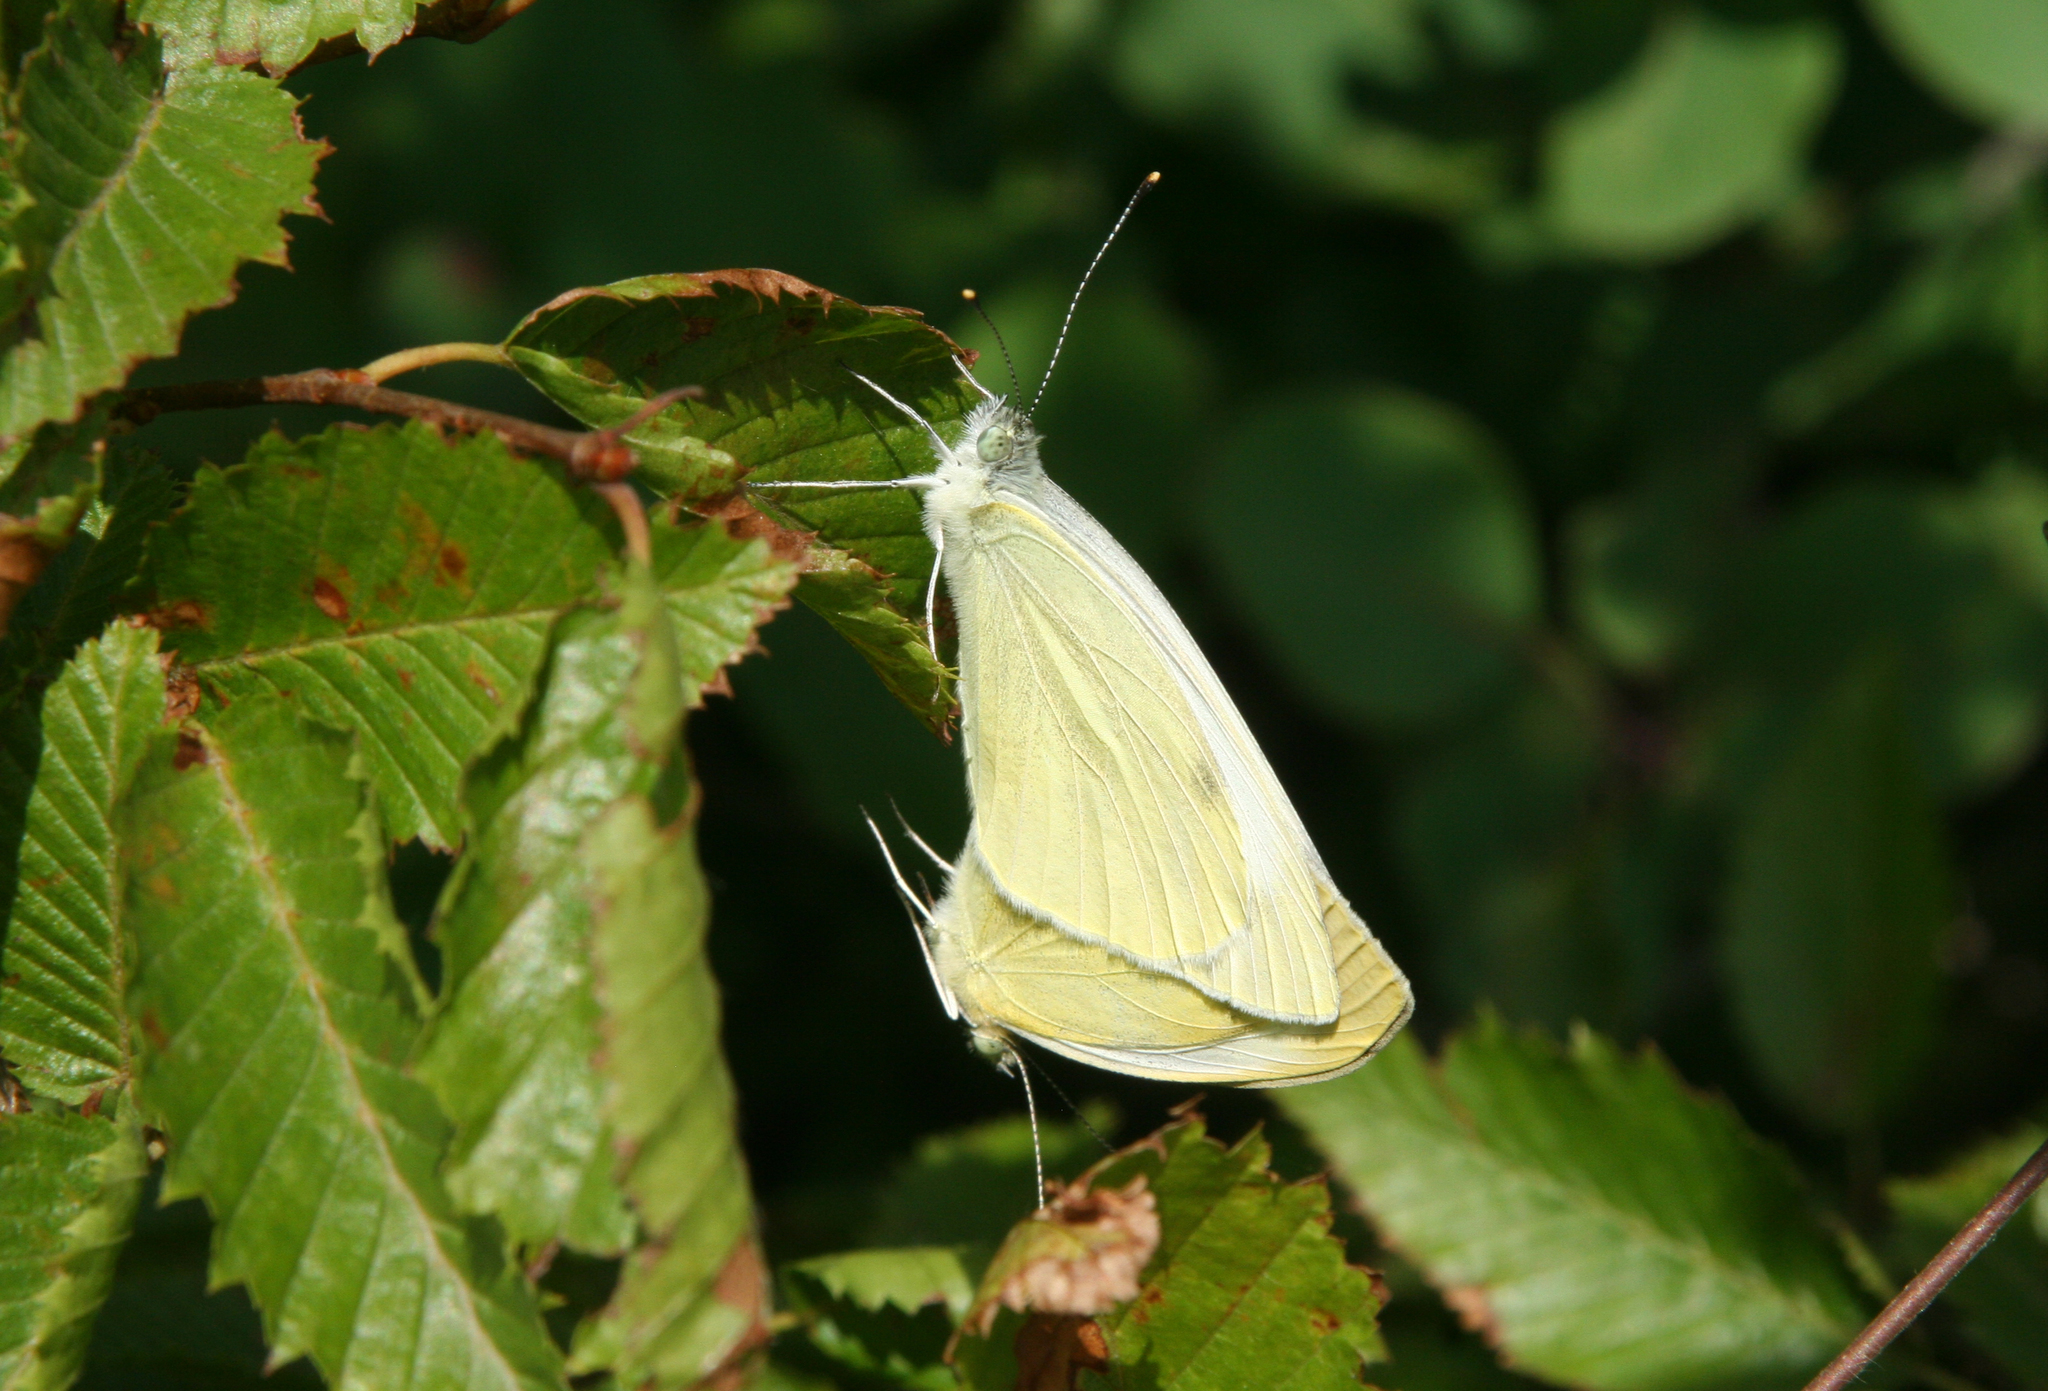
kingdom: Animalia
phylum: Arthropoda
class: Insecta
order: Lepidoptera
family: Pieridae
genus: Pieris
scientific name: Pieris rapae
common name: Small white
